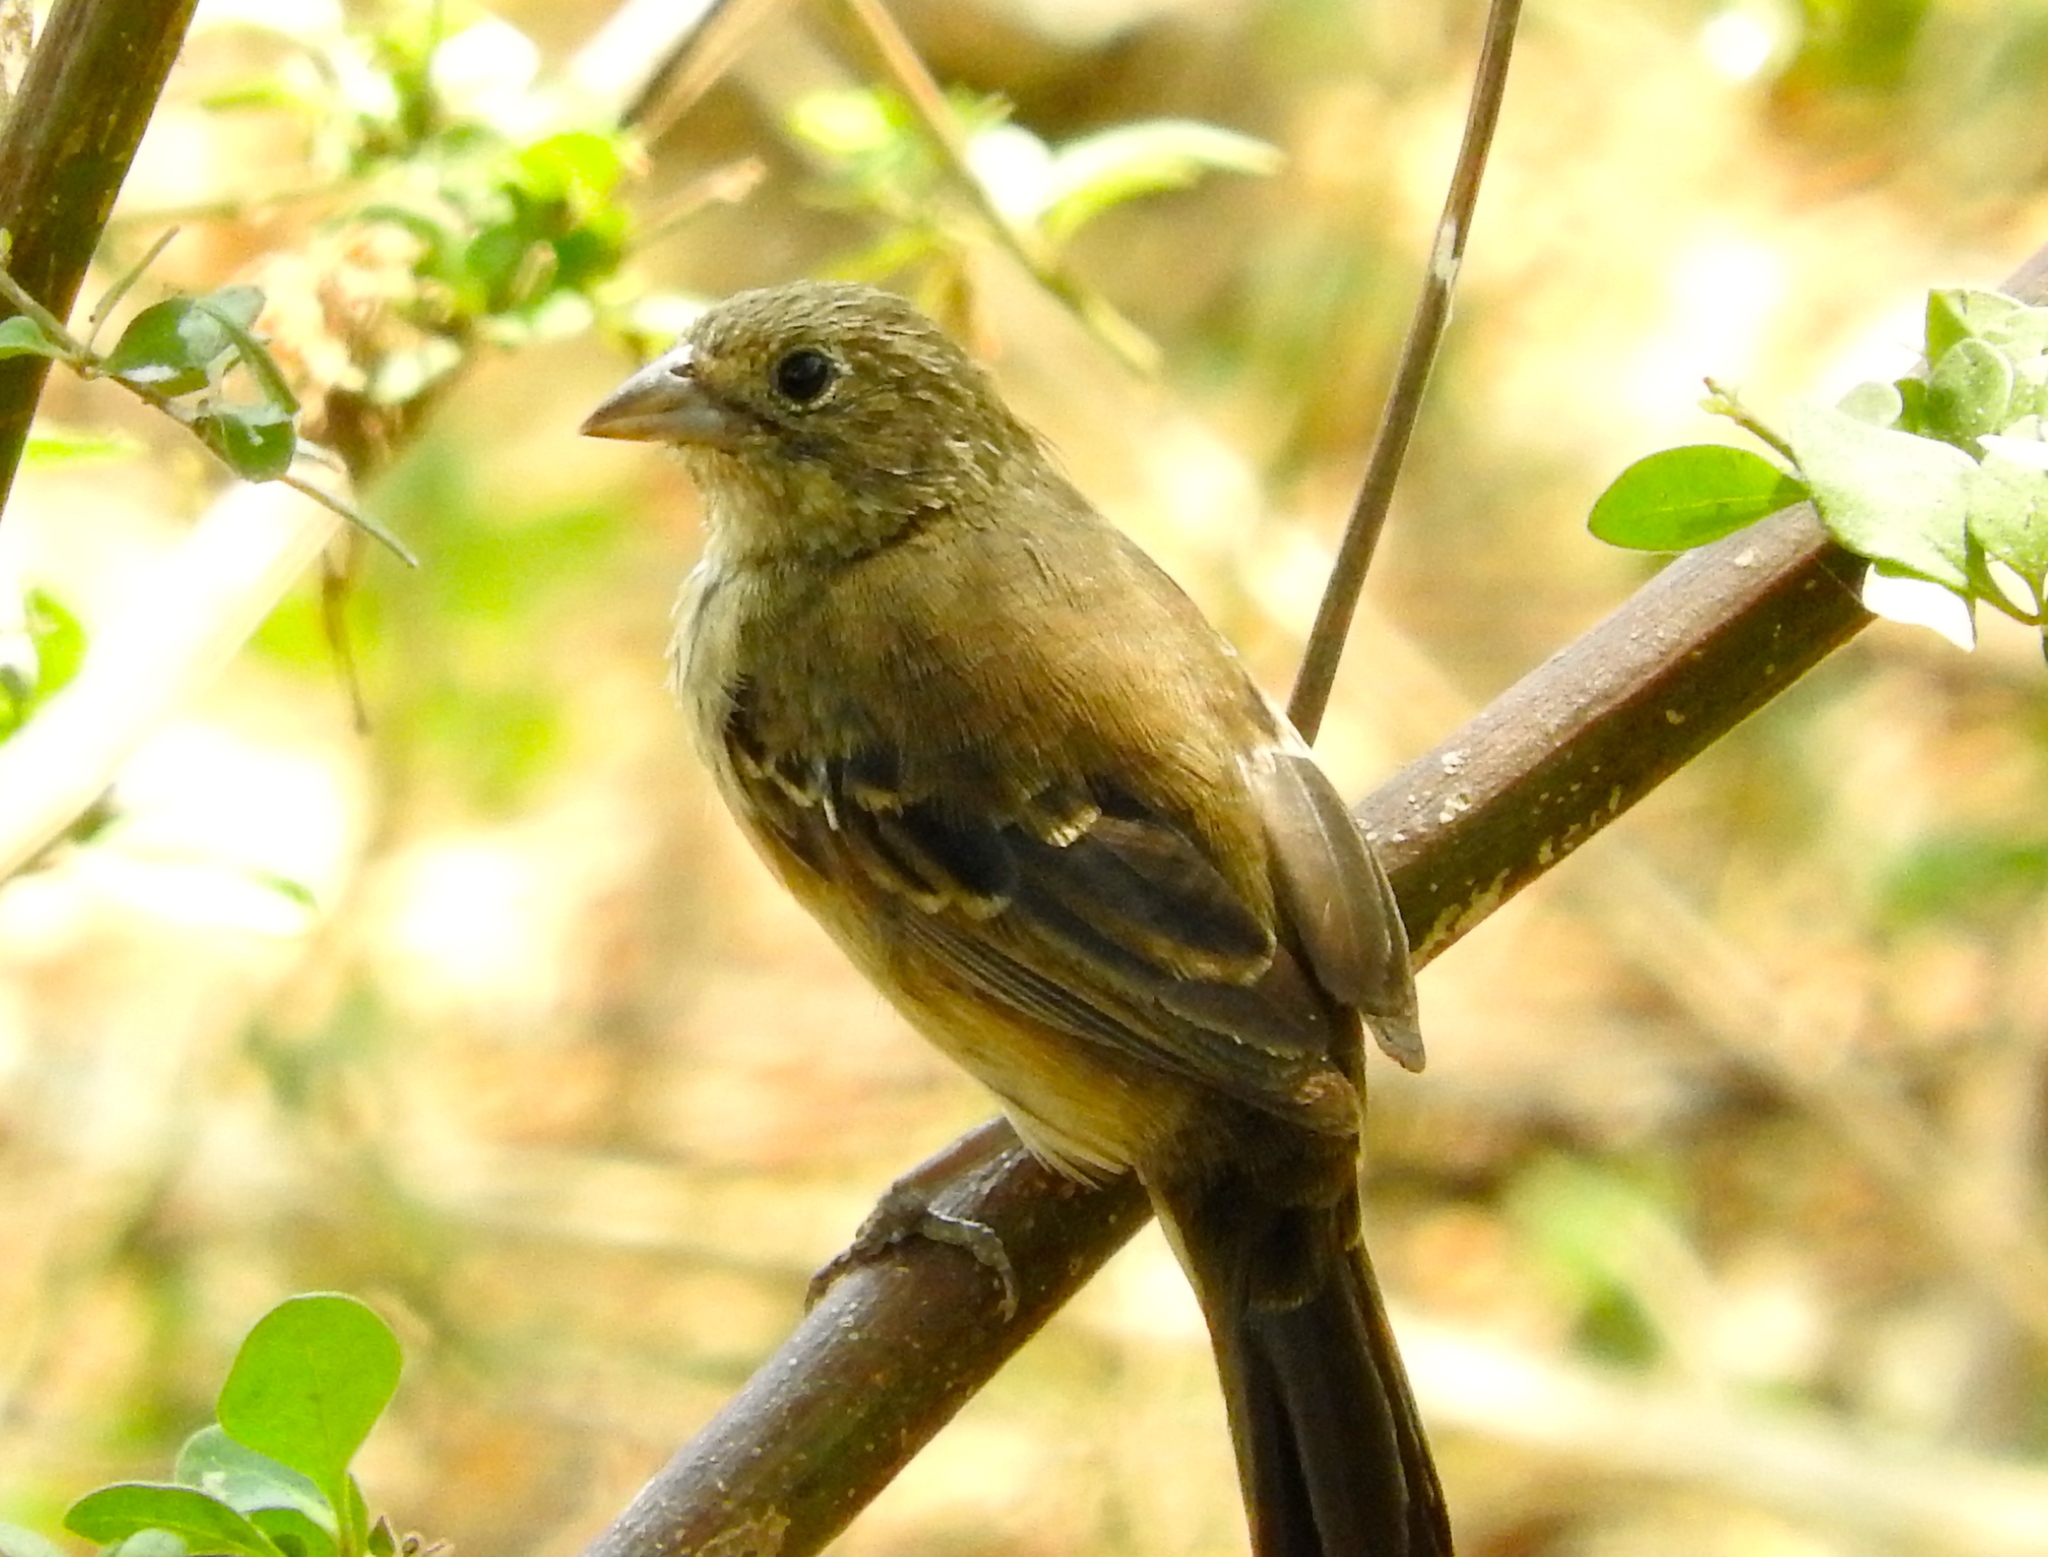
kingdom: Animalia
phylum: Chordata
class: Aves
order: Passeriformes
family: Thraupidae
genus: Volatinia
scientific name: Volatinia jacarina
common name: Blue-black grassquit
